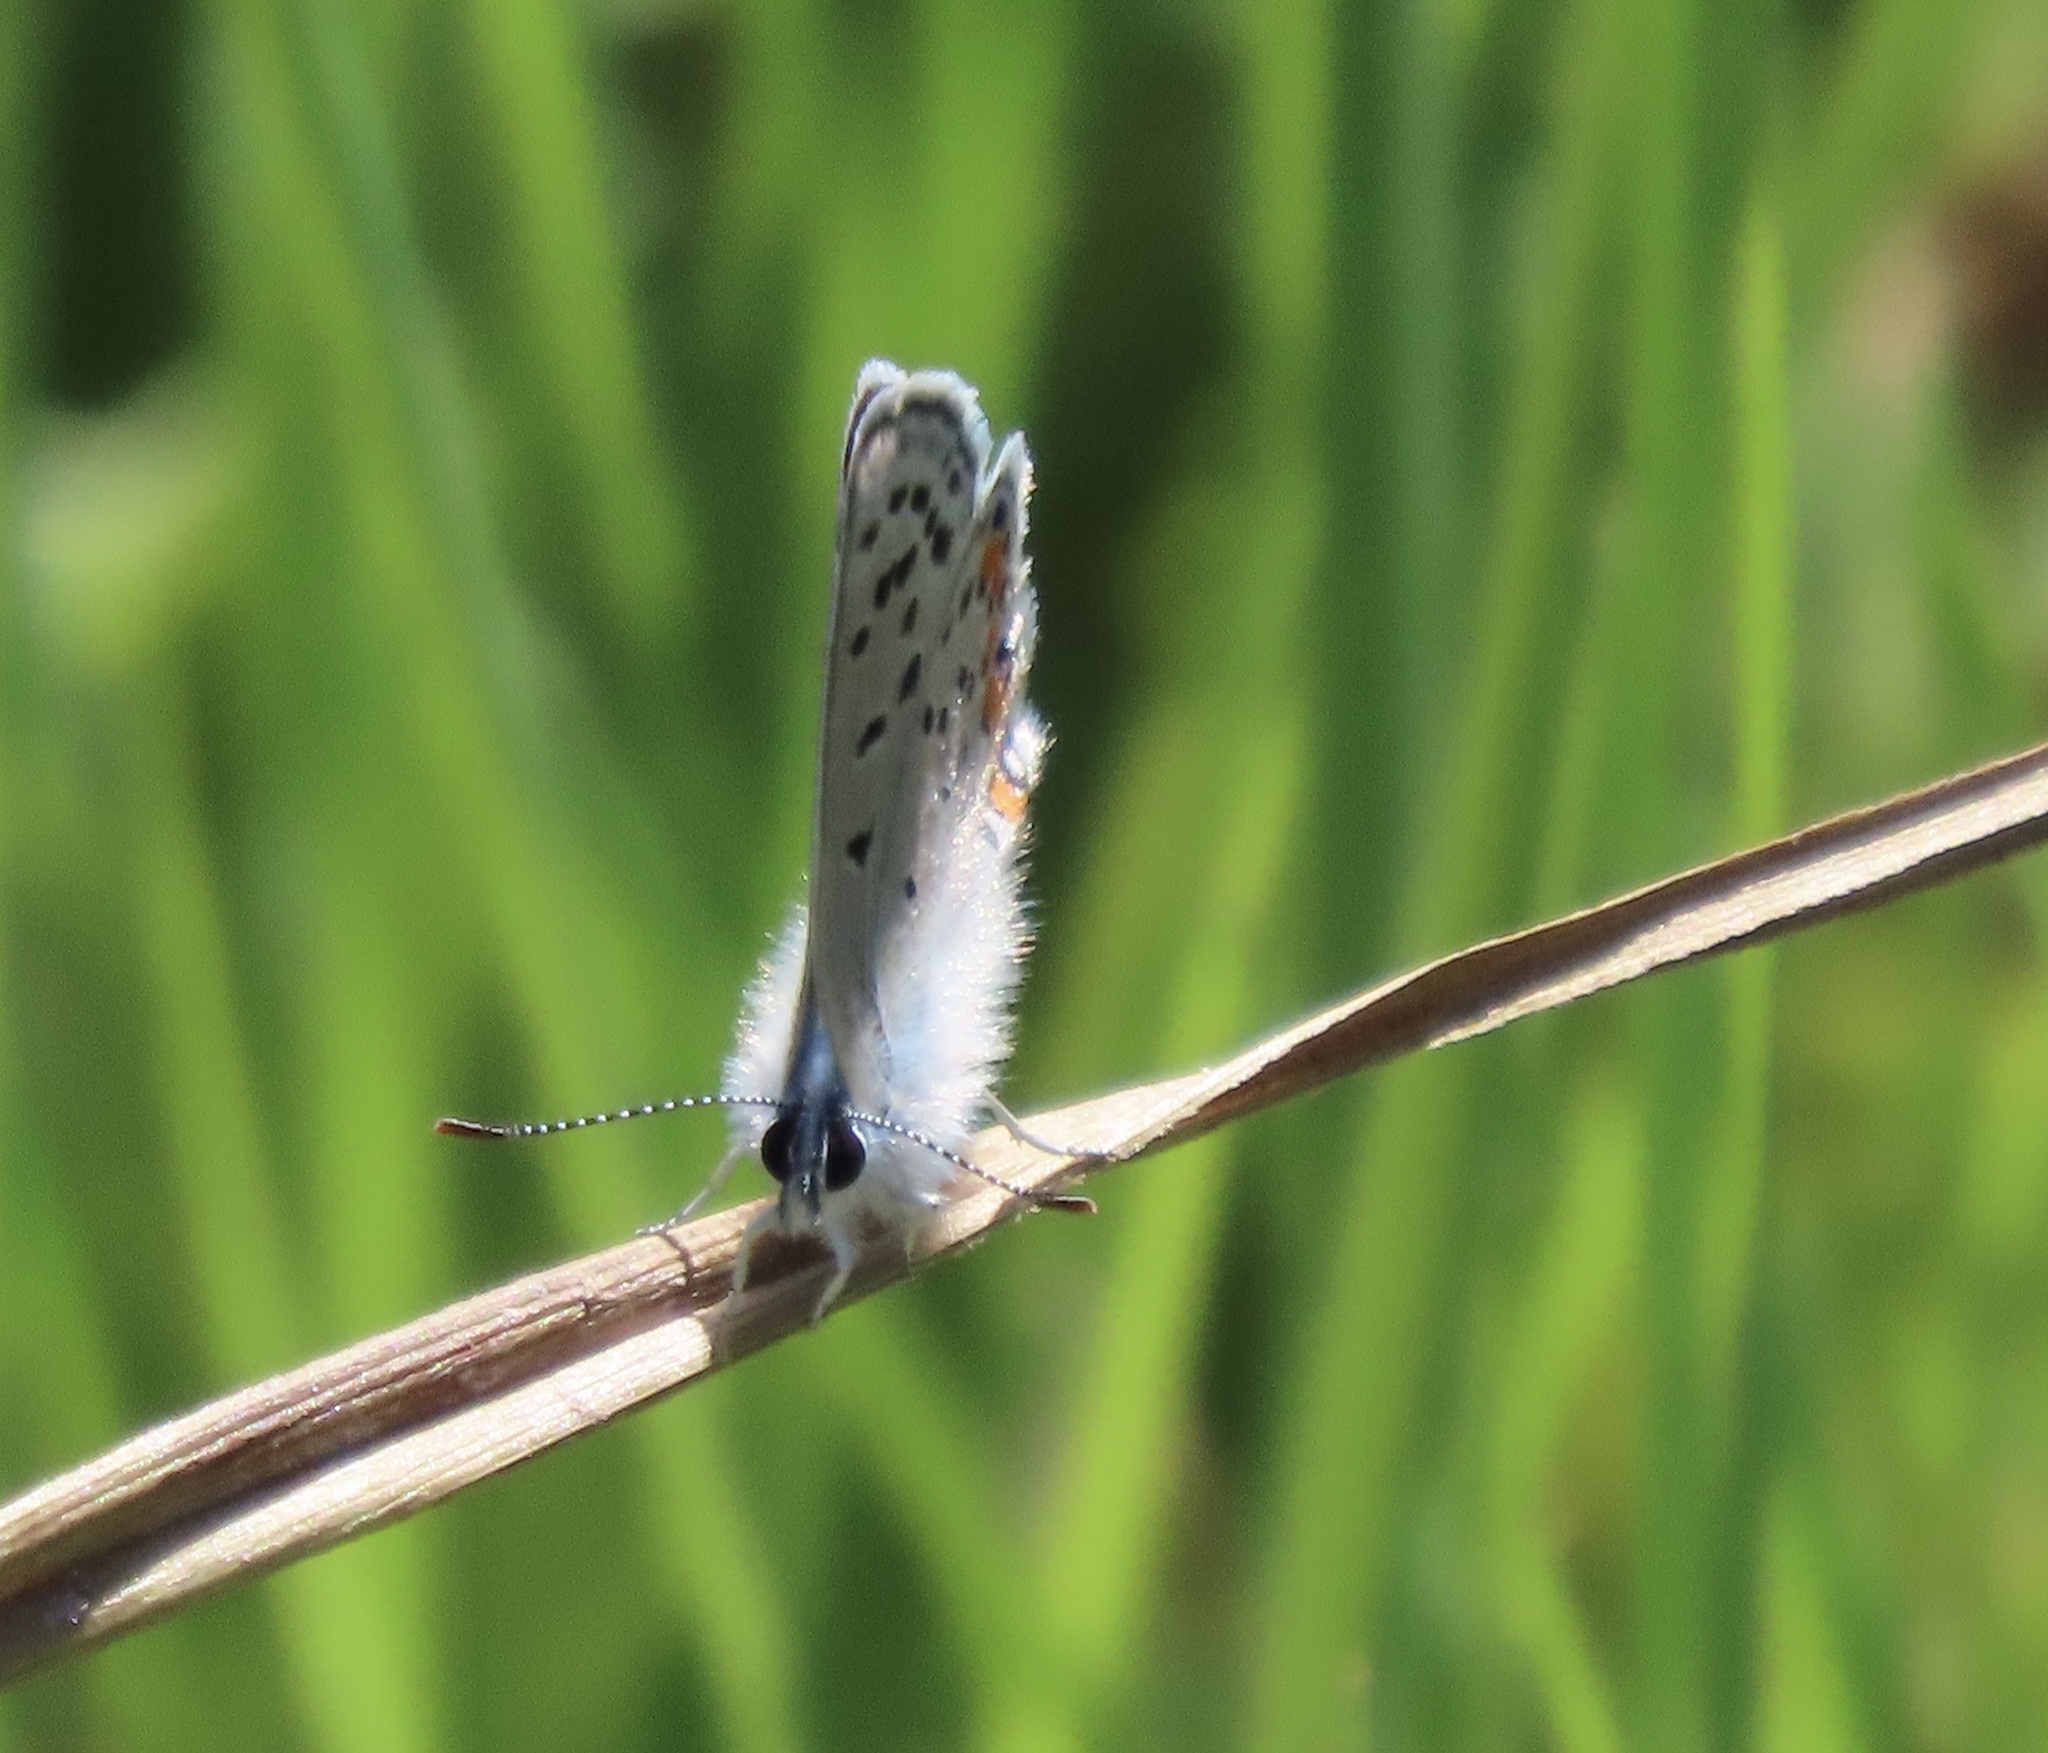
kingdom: Animalia
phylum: Arthropoda
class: Insecta
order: Lepidoptera
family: Lycaenidae
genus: Icaricia
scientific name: Icaricia acmon
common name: Acmon blue
